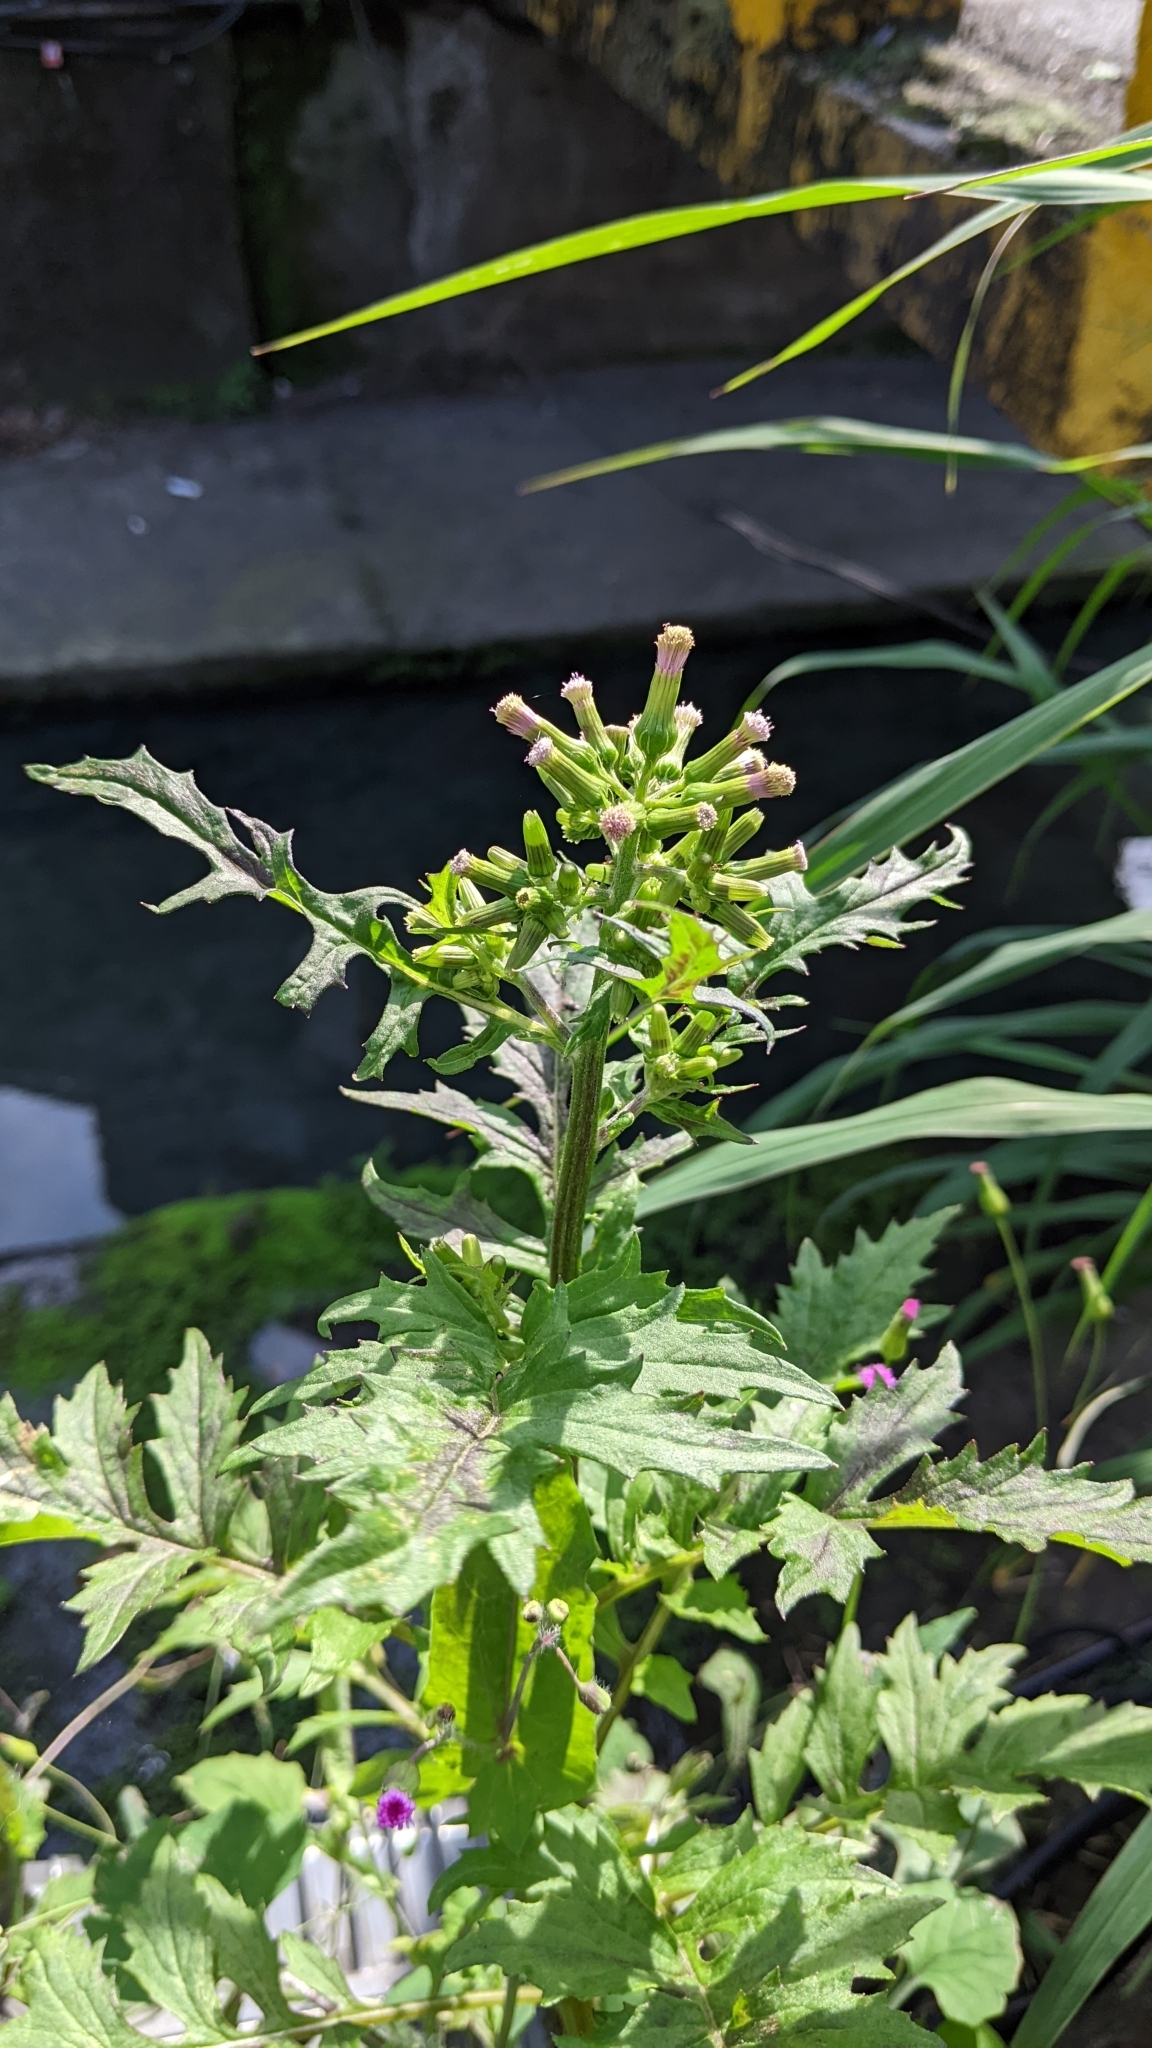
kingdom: Plantae
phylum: Tracheophyta
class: Magnoliopsida
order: Asterales
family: Asteraceae
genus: Erechtites
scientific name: Erechtites valerianifolius
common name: Tropical burnweed
